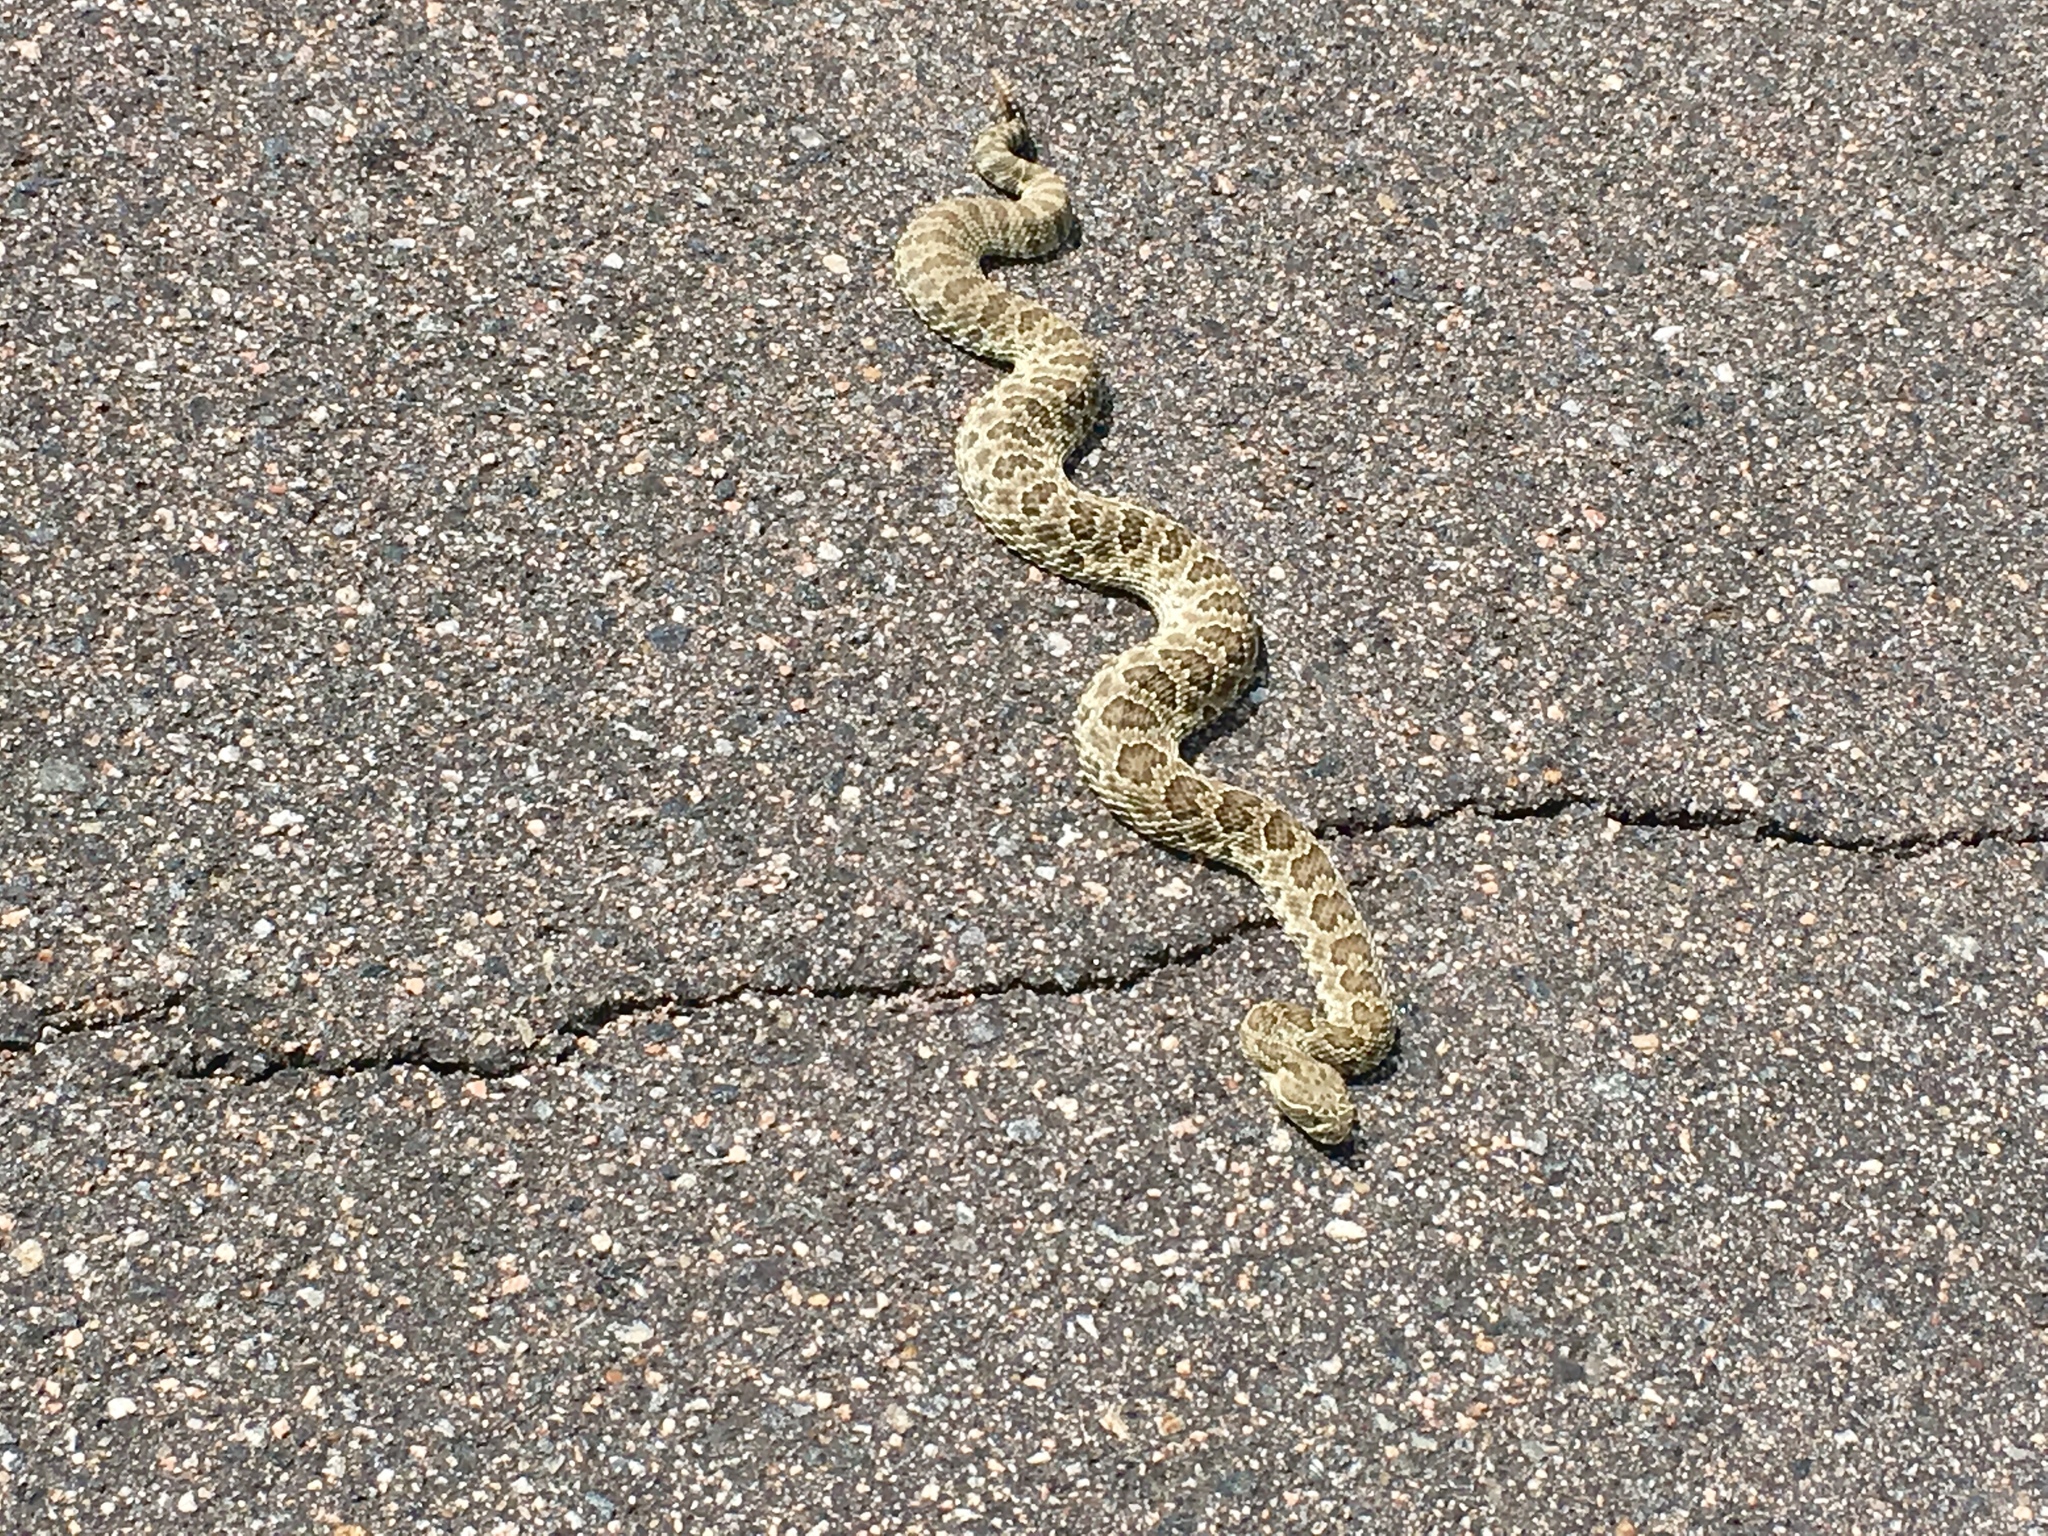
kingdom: Animalia
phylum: Chordata
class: Squamata
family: Viperidae
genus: Crotalus
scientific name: Crotalus viridis
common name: Prairie rattlesnake
